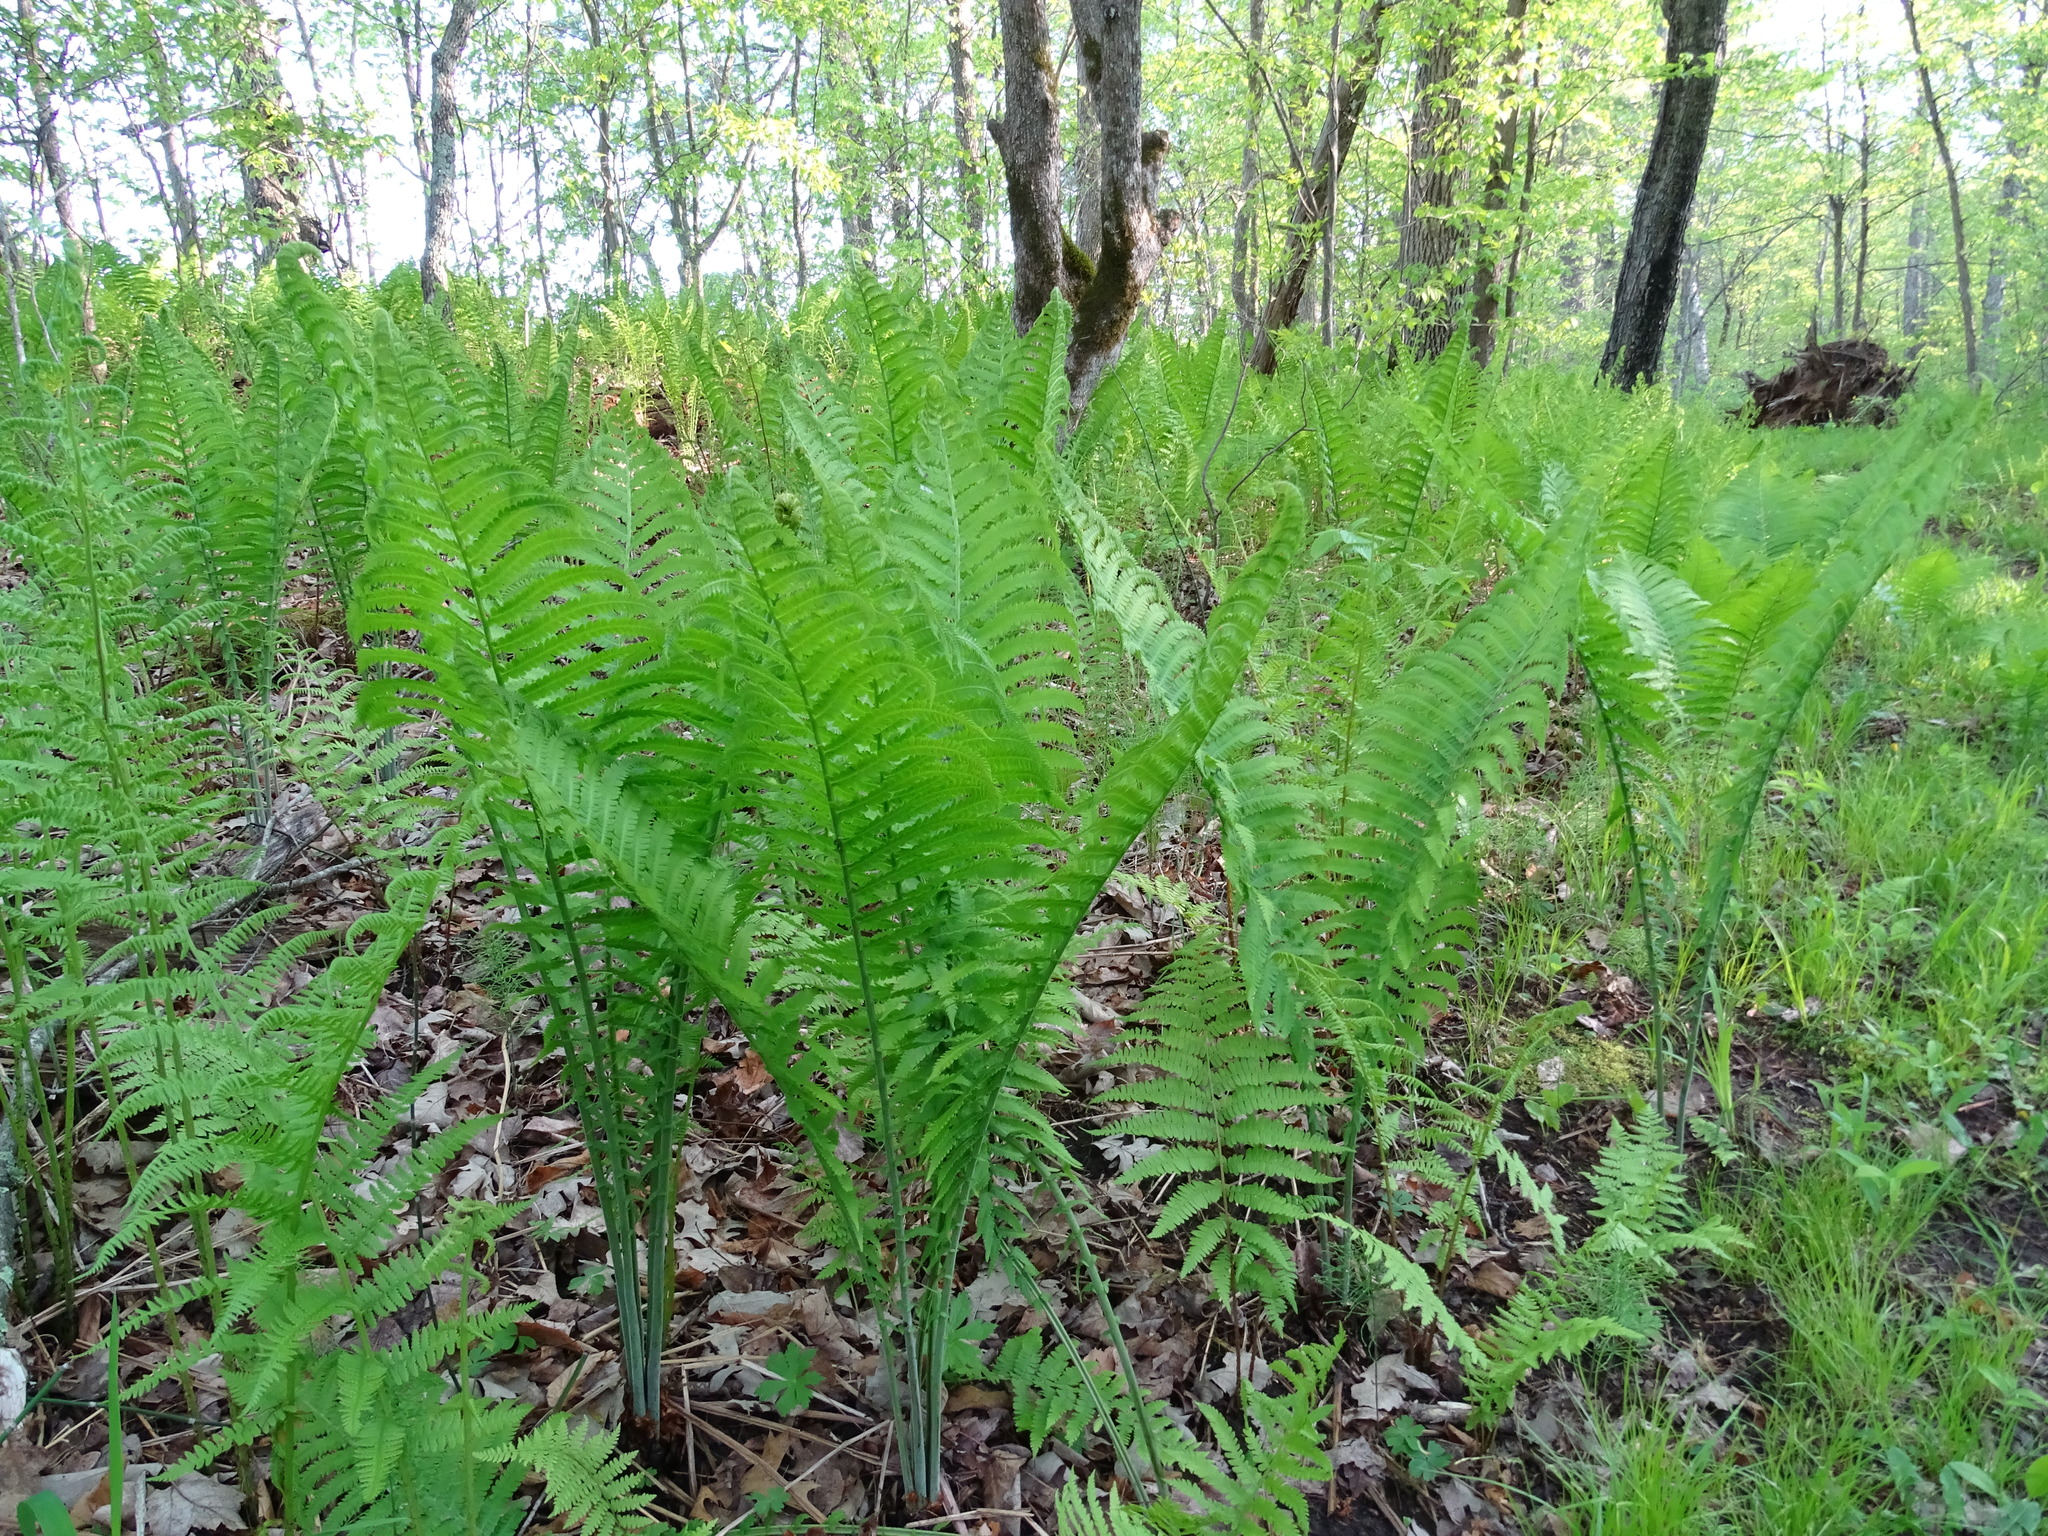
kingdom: Plantae
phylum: Tracheophyta
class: Polypodiopsida
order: Polypodiales
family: Onocleaceae
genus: Matteuccia
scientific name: Matteuccia struthiopteris
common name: Ostrich fern
